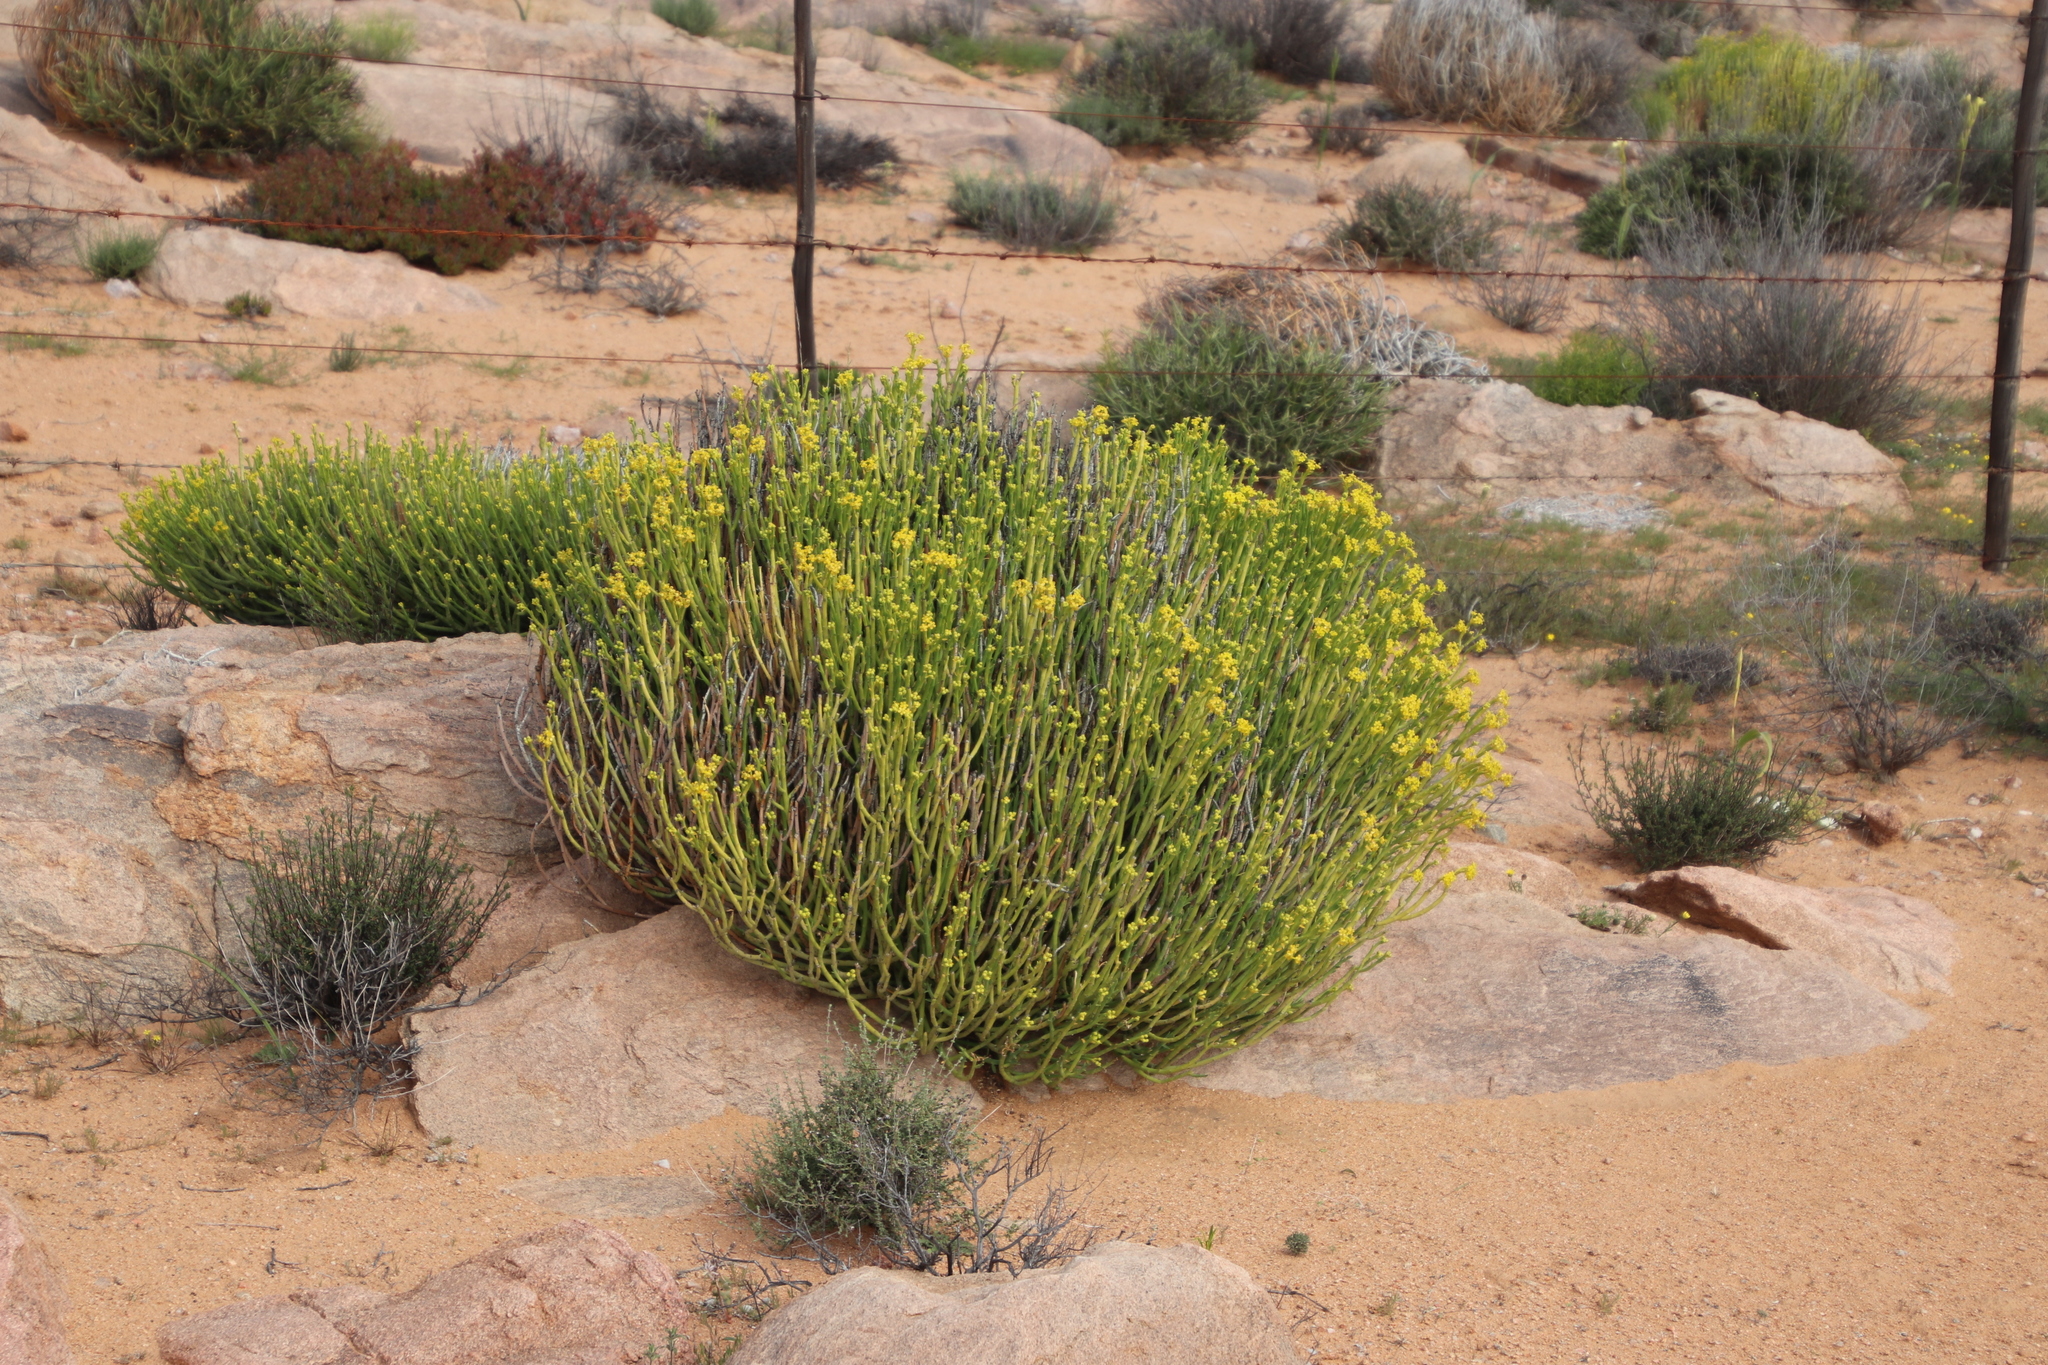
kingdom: Plantae
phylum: Tracheophyta
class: Magnoliopsida
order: Malpighiales
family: Euphorbiaceae
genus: Euphorbia
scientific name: Euphorbia mauritanica
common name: Jackal's-food
